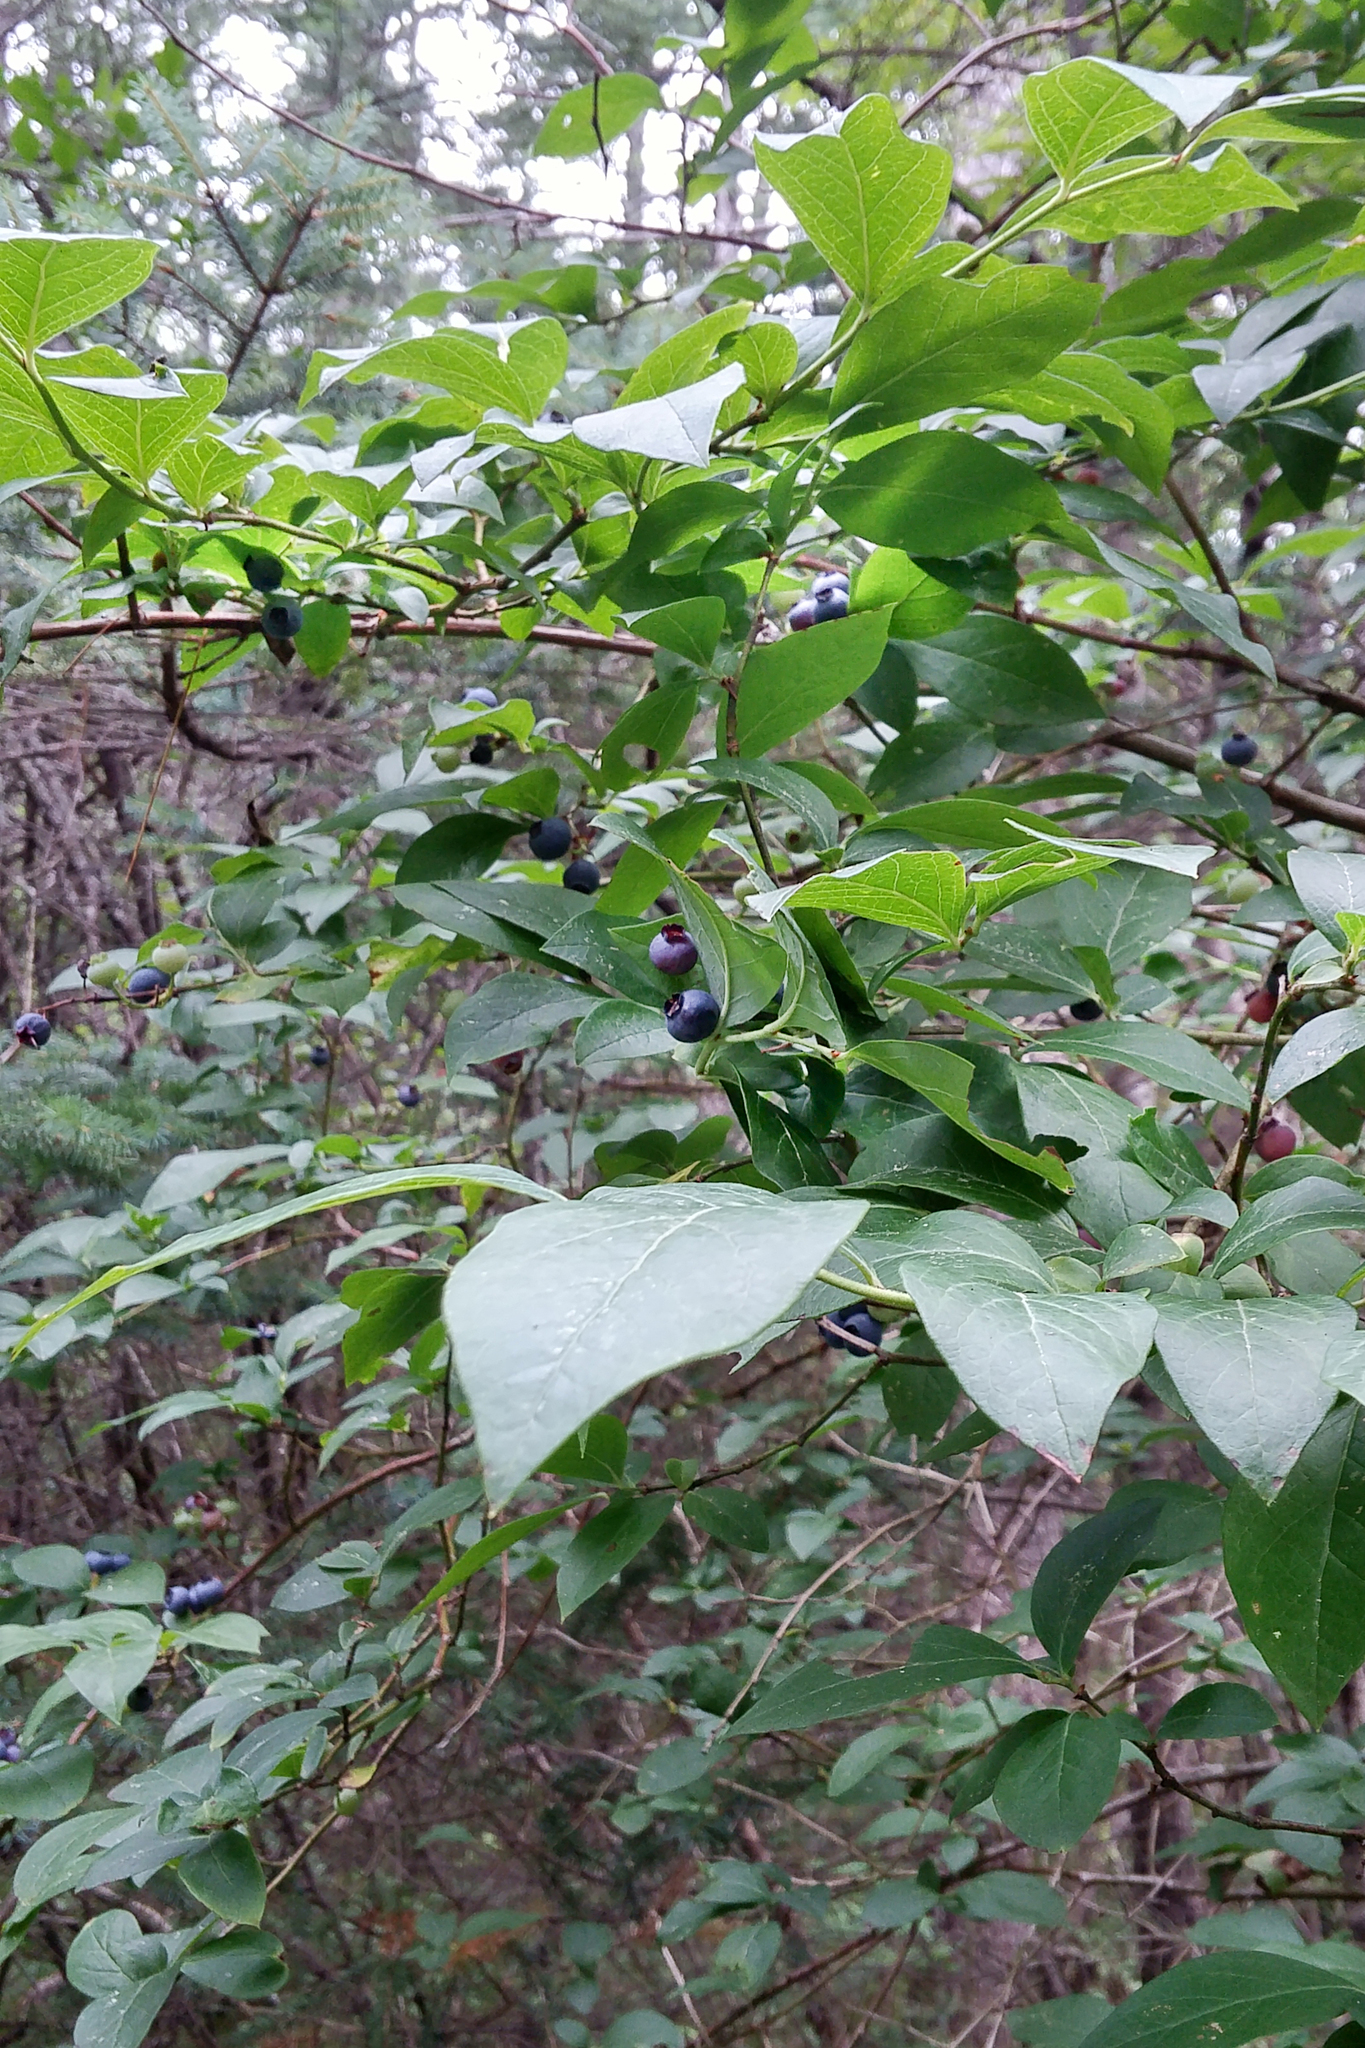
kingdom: Plantae
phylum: Tracheophyta
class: Magnoliopsida
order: Ericales
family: Ericaceae
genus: Vaccinium
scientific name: Vaccinium corymbosum
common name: Blueberry
